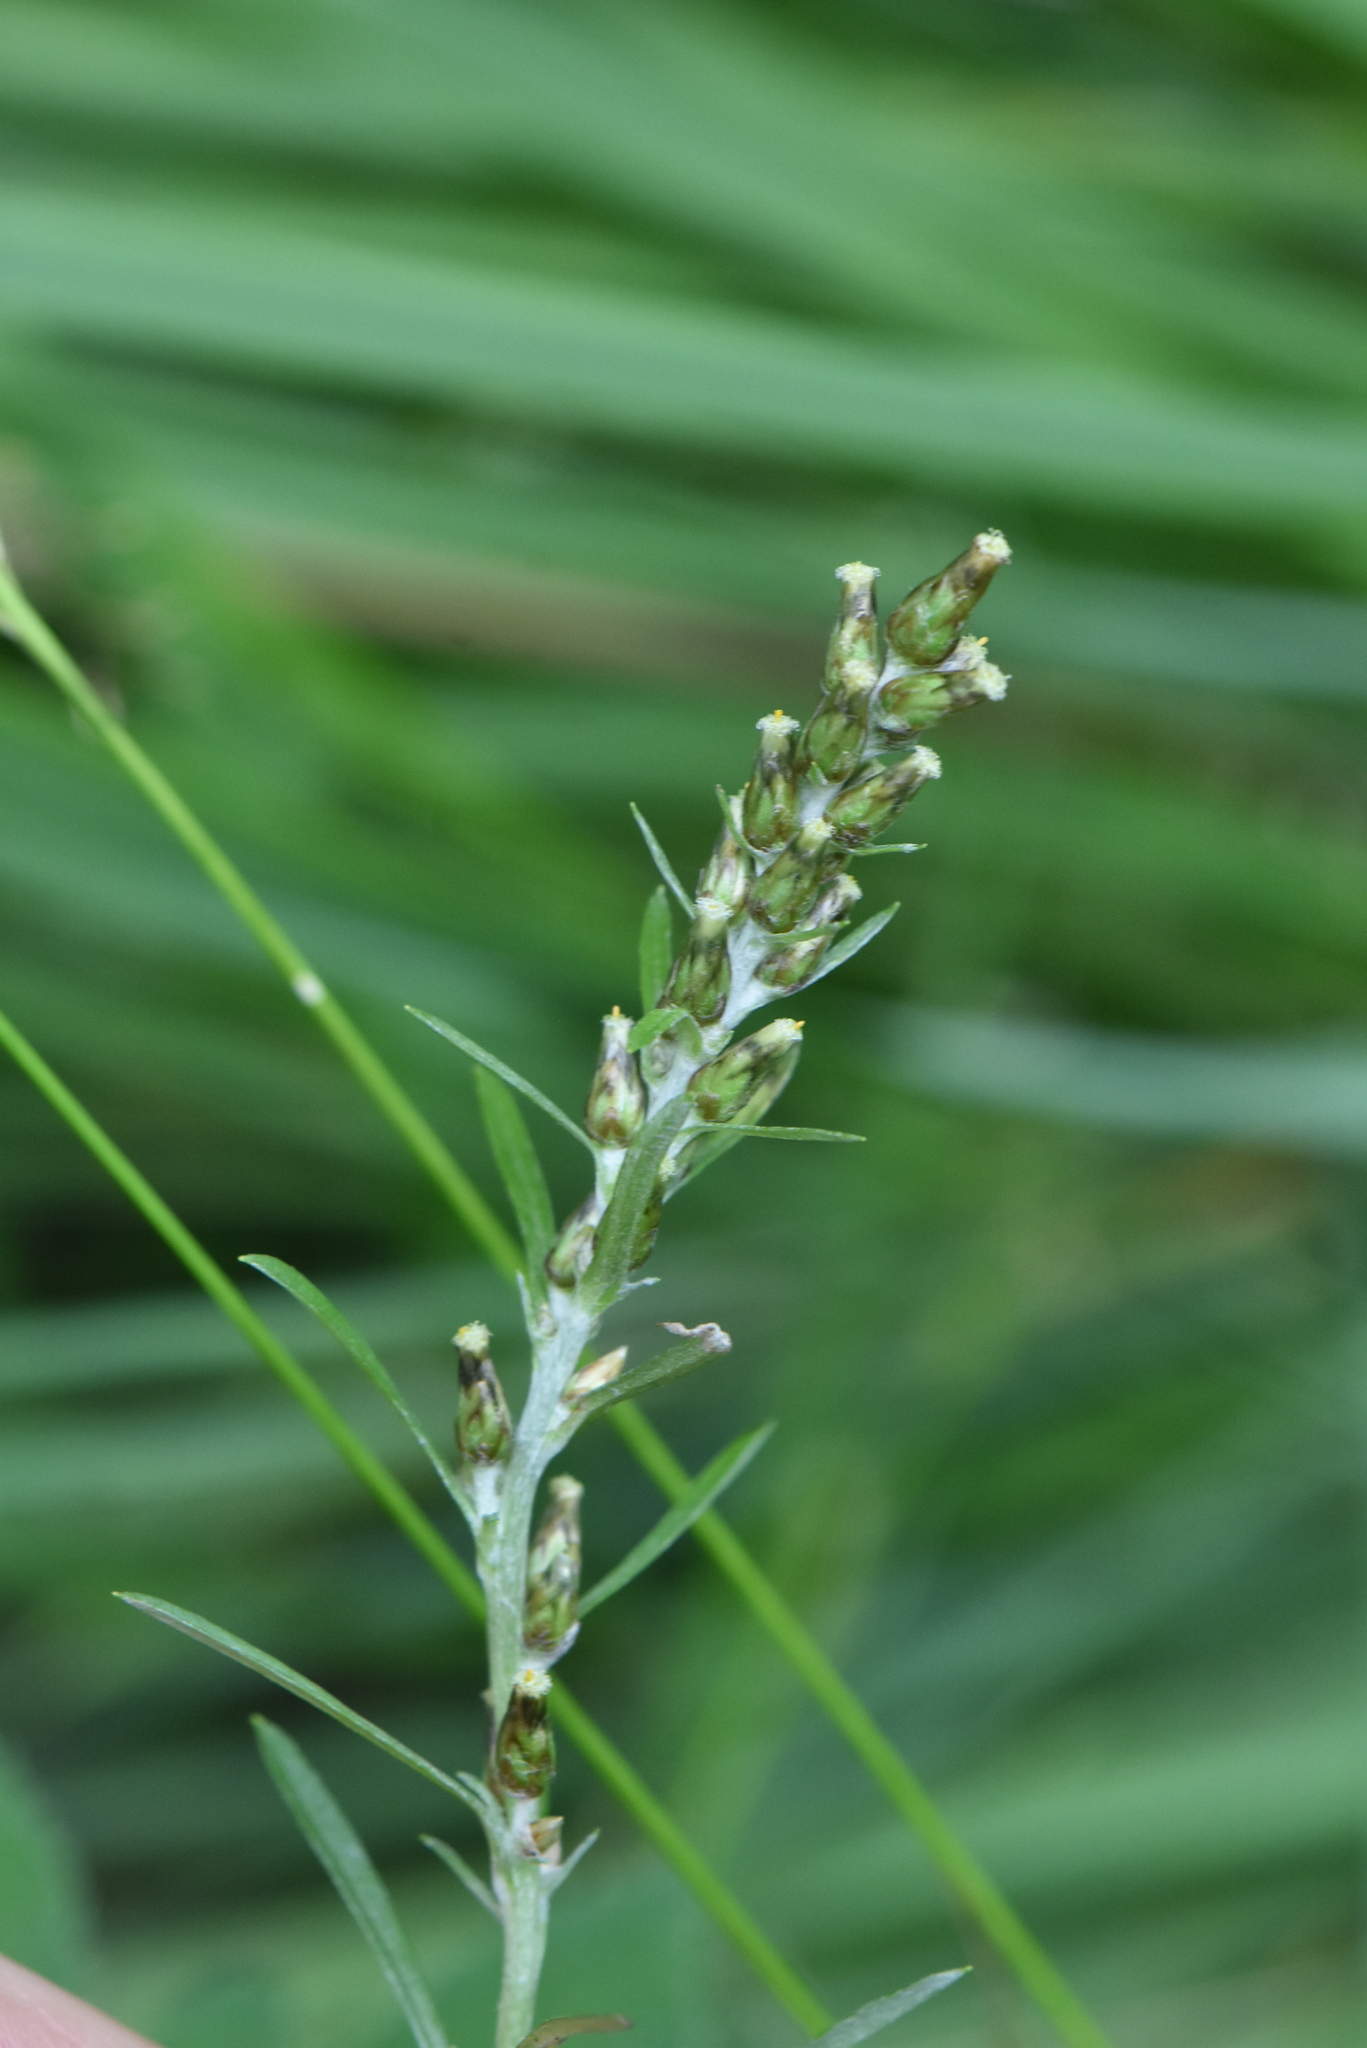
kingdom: Plantae
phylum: Tracheophyta
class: Magnoliopsida
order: Asterales
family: Asteraceae
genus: Omalotheca
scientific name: Omalotheca sylvatica
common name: Heath cudweed
